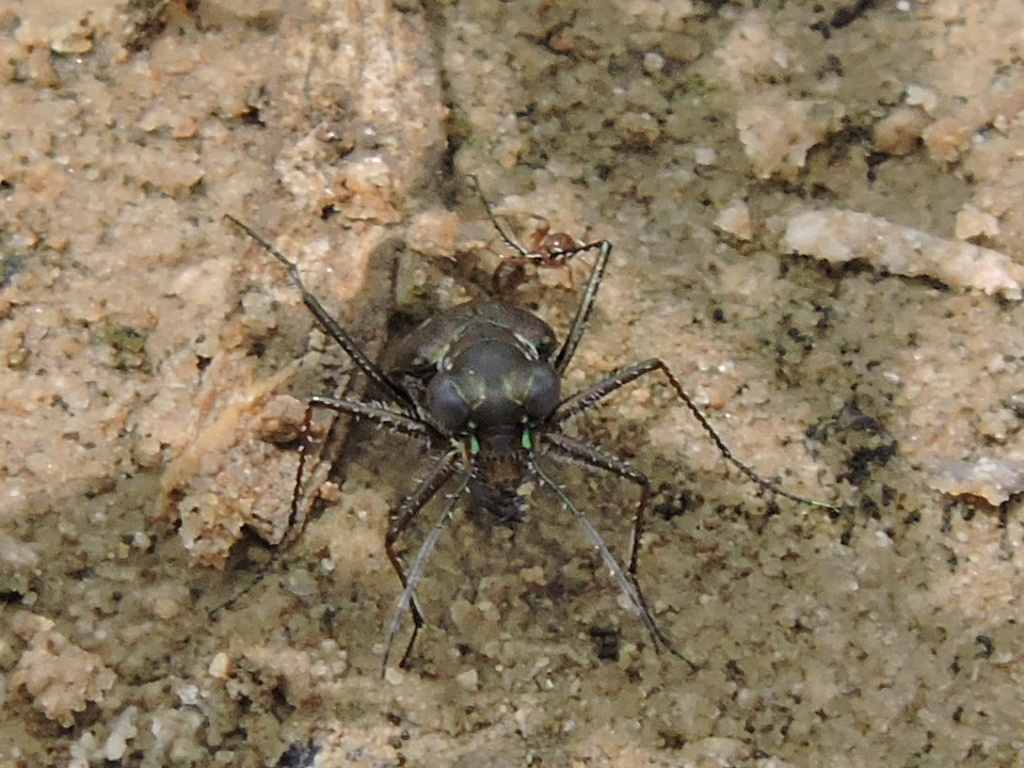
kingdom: Animalia
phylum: Arthropoda
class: Insecta
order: Coleoptera
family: Carabidae
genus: Cicindela
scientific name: Cicindela trifasciata
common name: Mudflat tiger beetle
